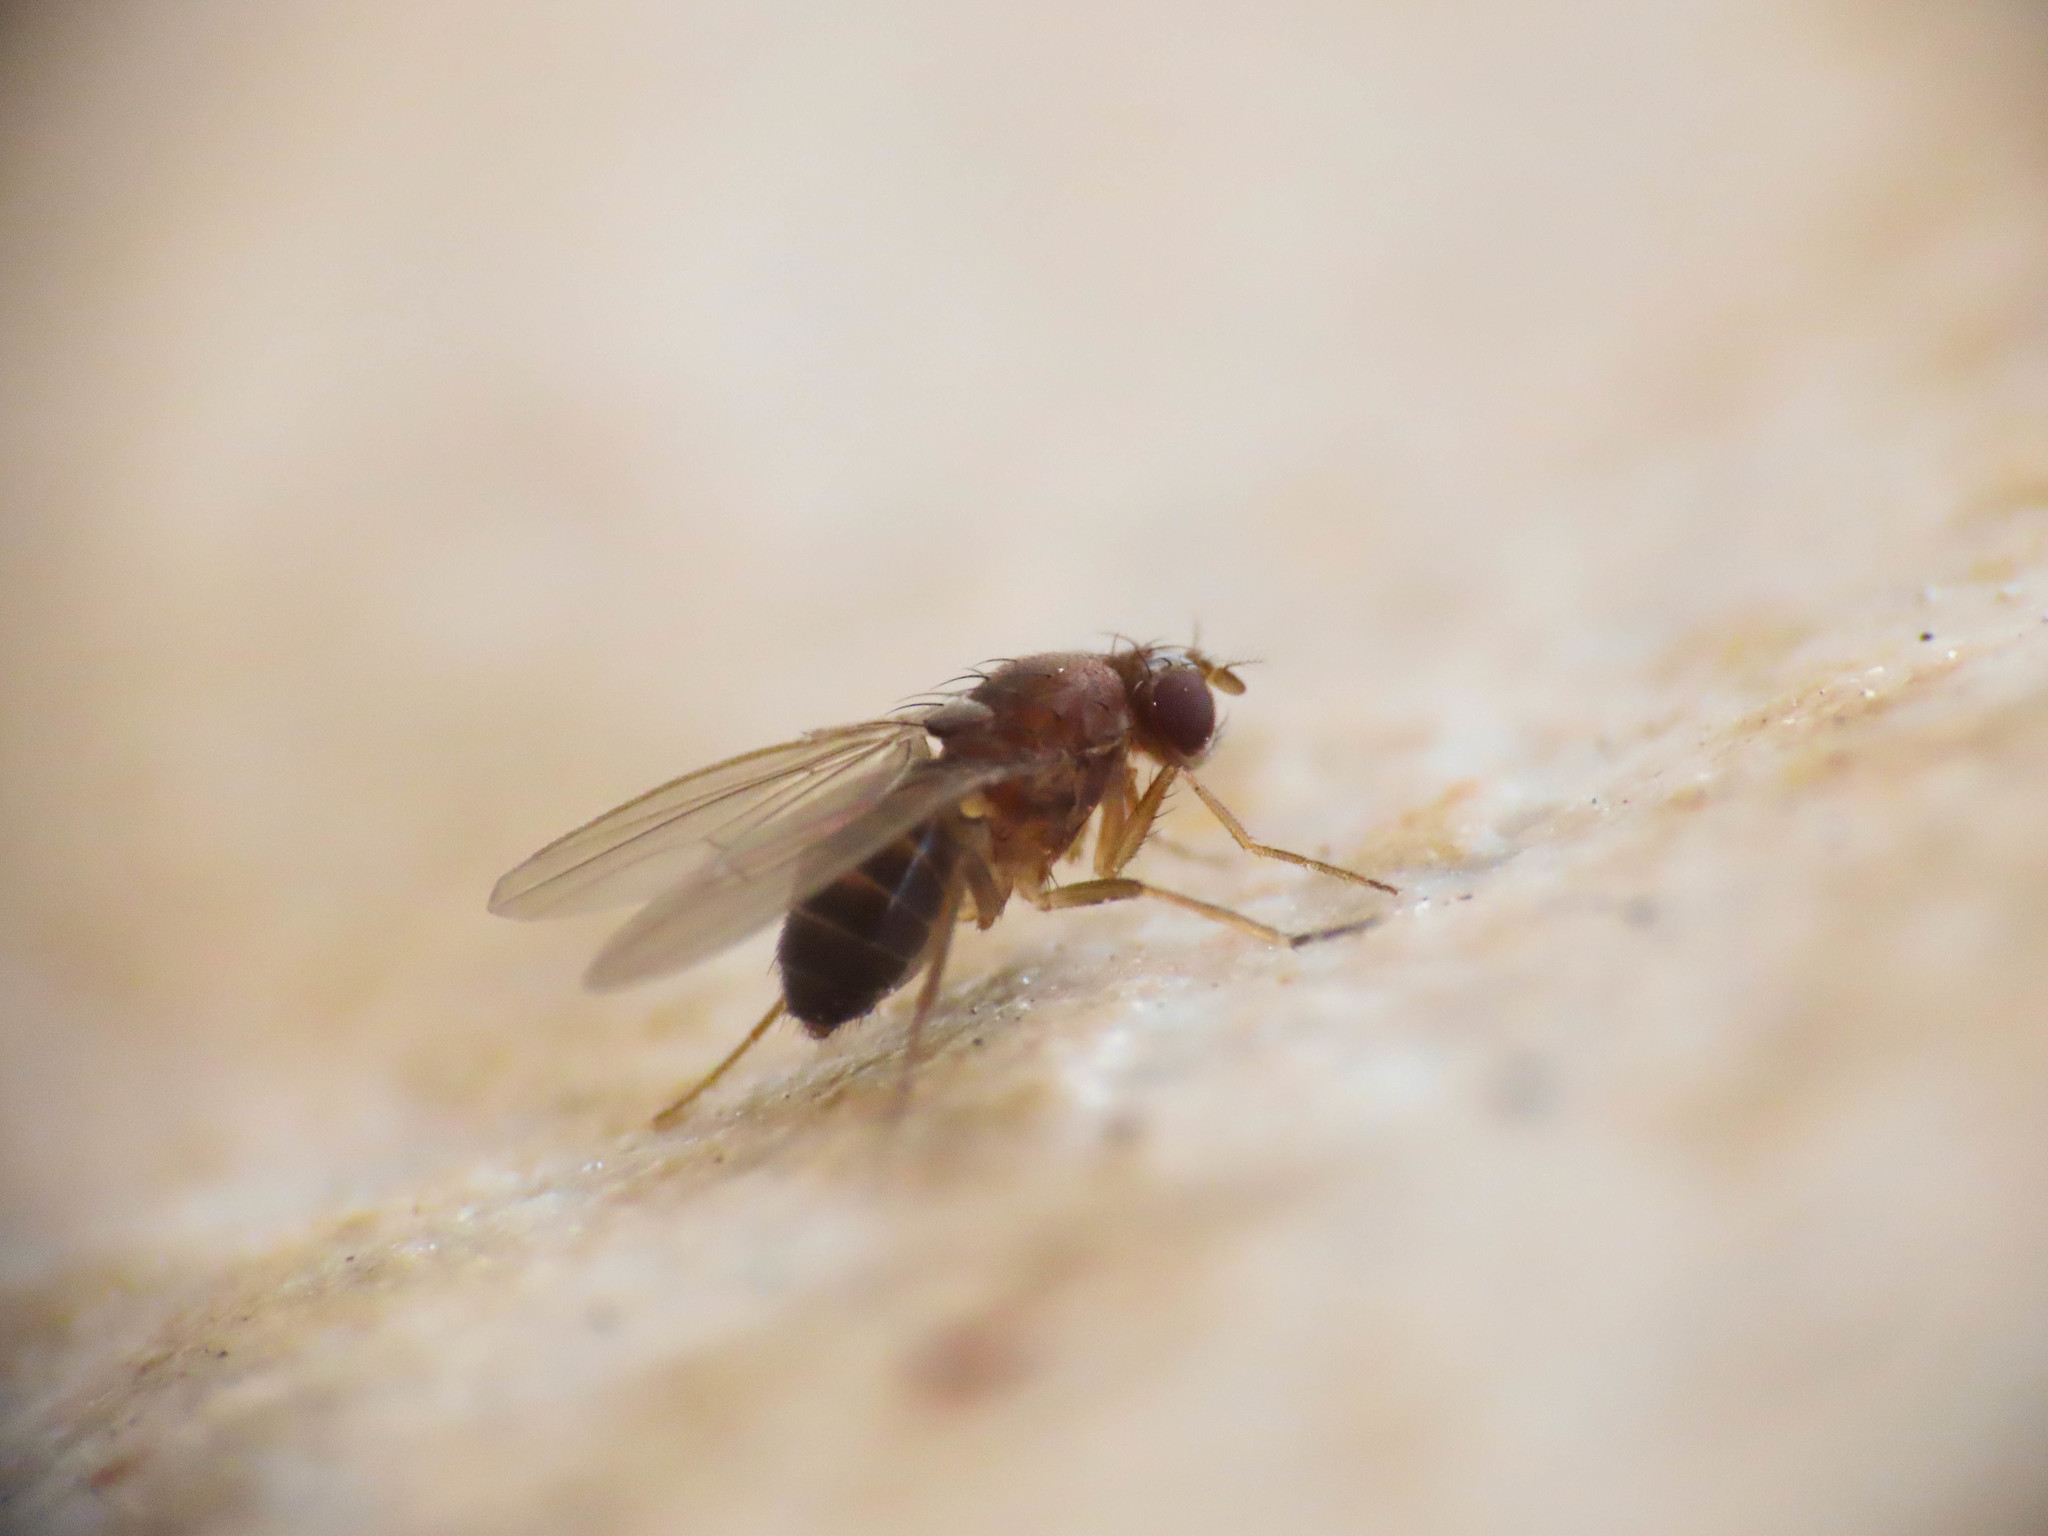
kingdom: Animalia
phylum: Arthropoda
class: Insecta
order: Diptera
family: Drosophilidae
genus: Hirtodrosophila
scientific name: Hirtodrosophila cameraria
